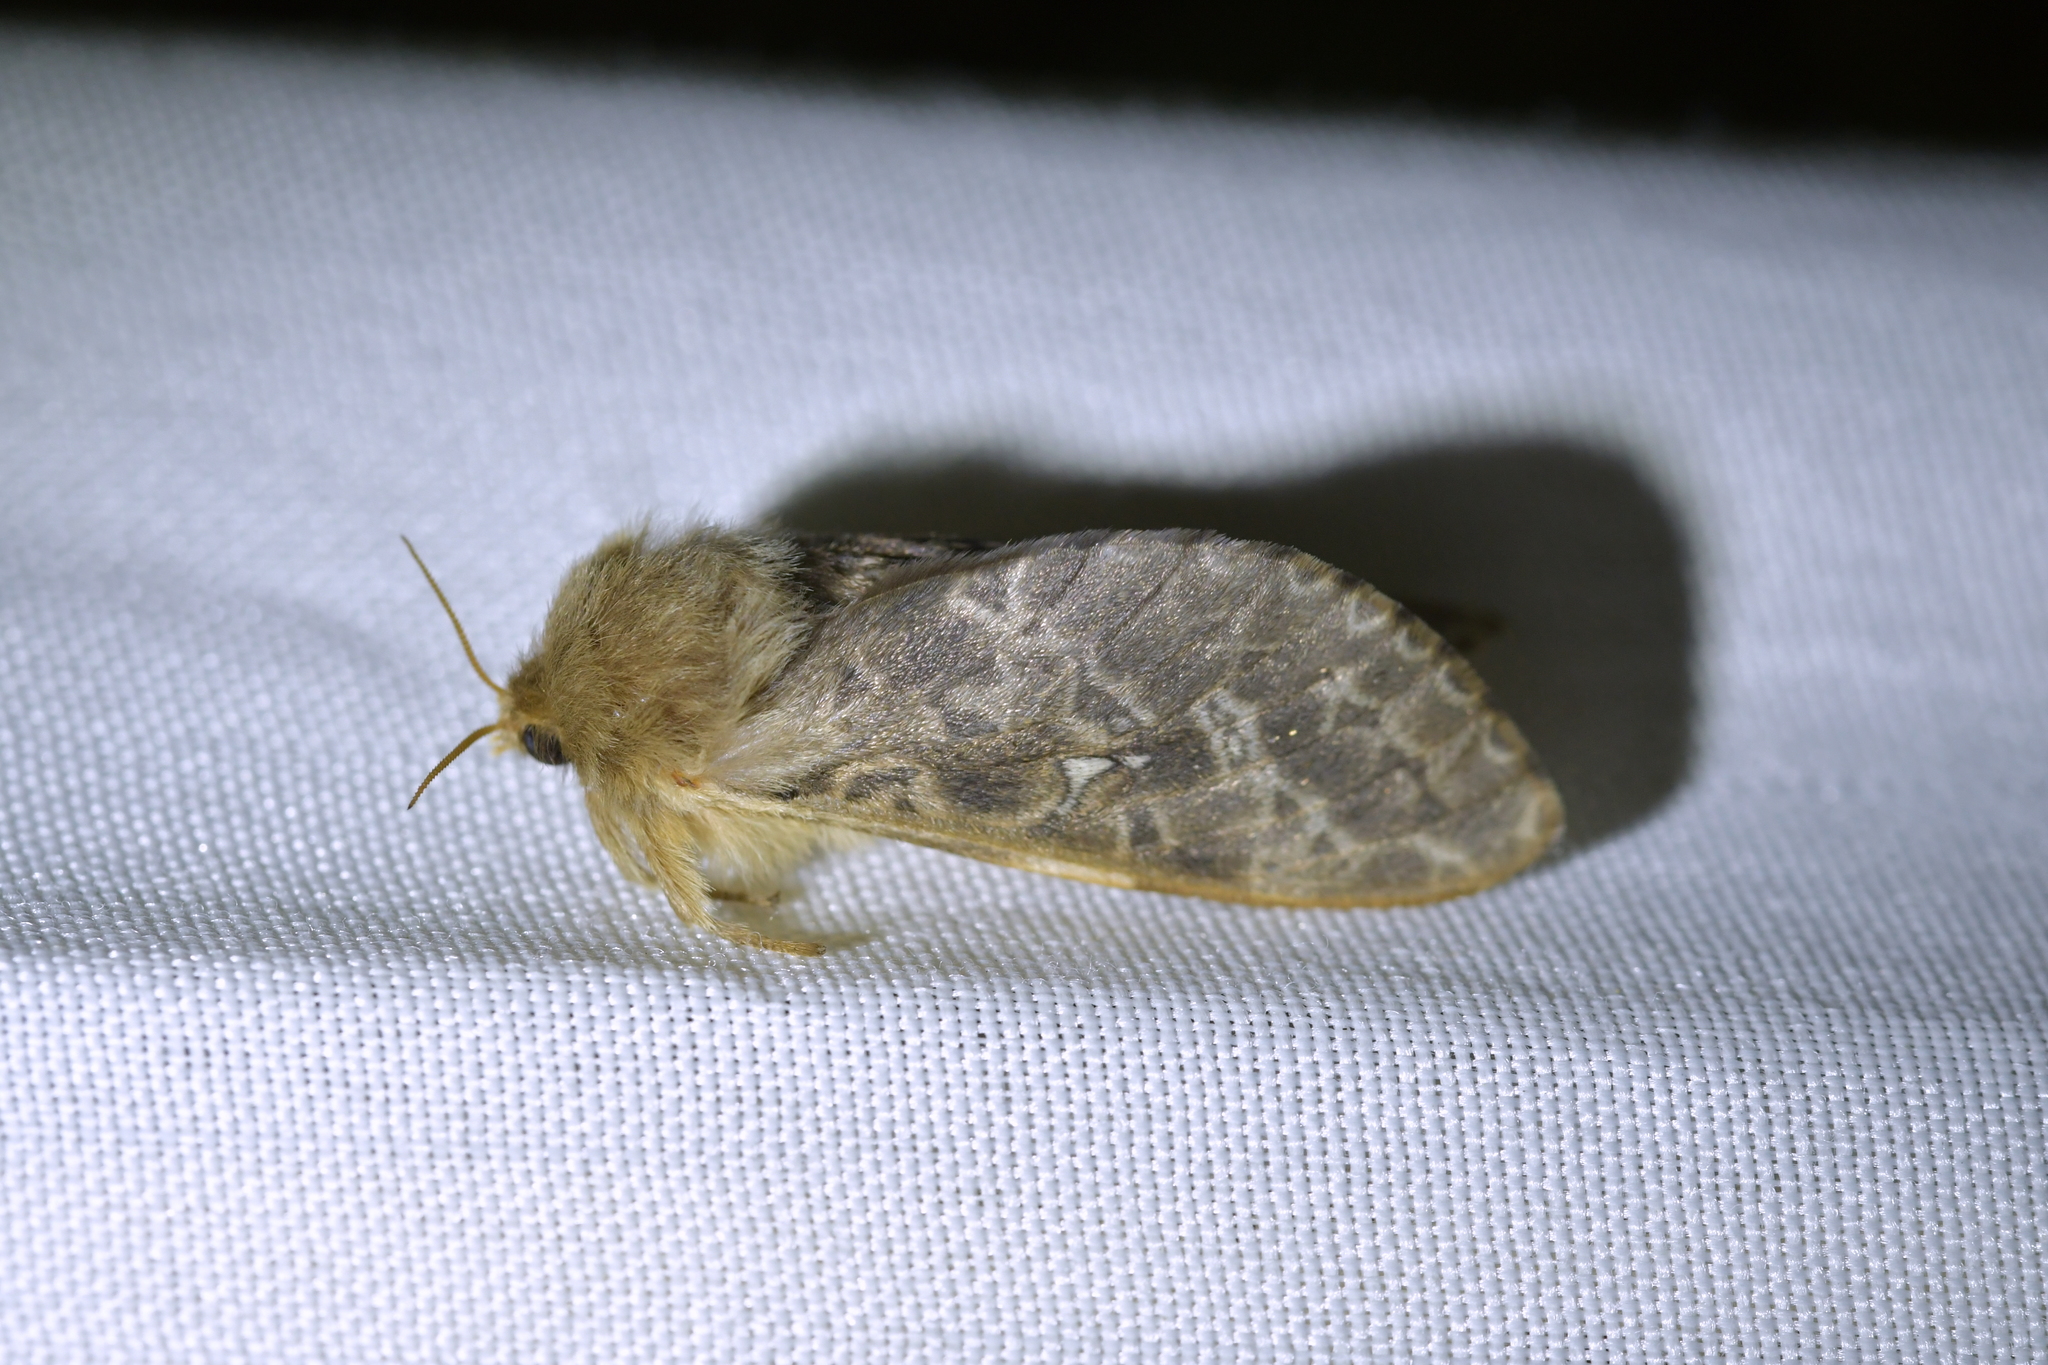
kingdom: Animalia
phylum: Arthropoda
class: Insecta
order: Lepidoptera
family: Hepialidae
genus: Wiseana
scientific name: Wiseana cervinata
